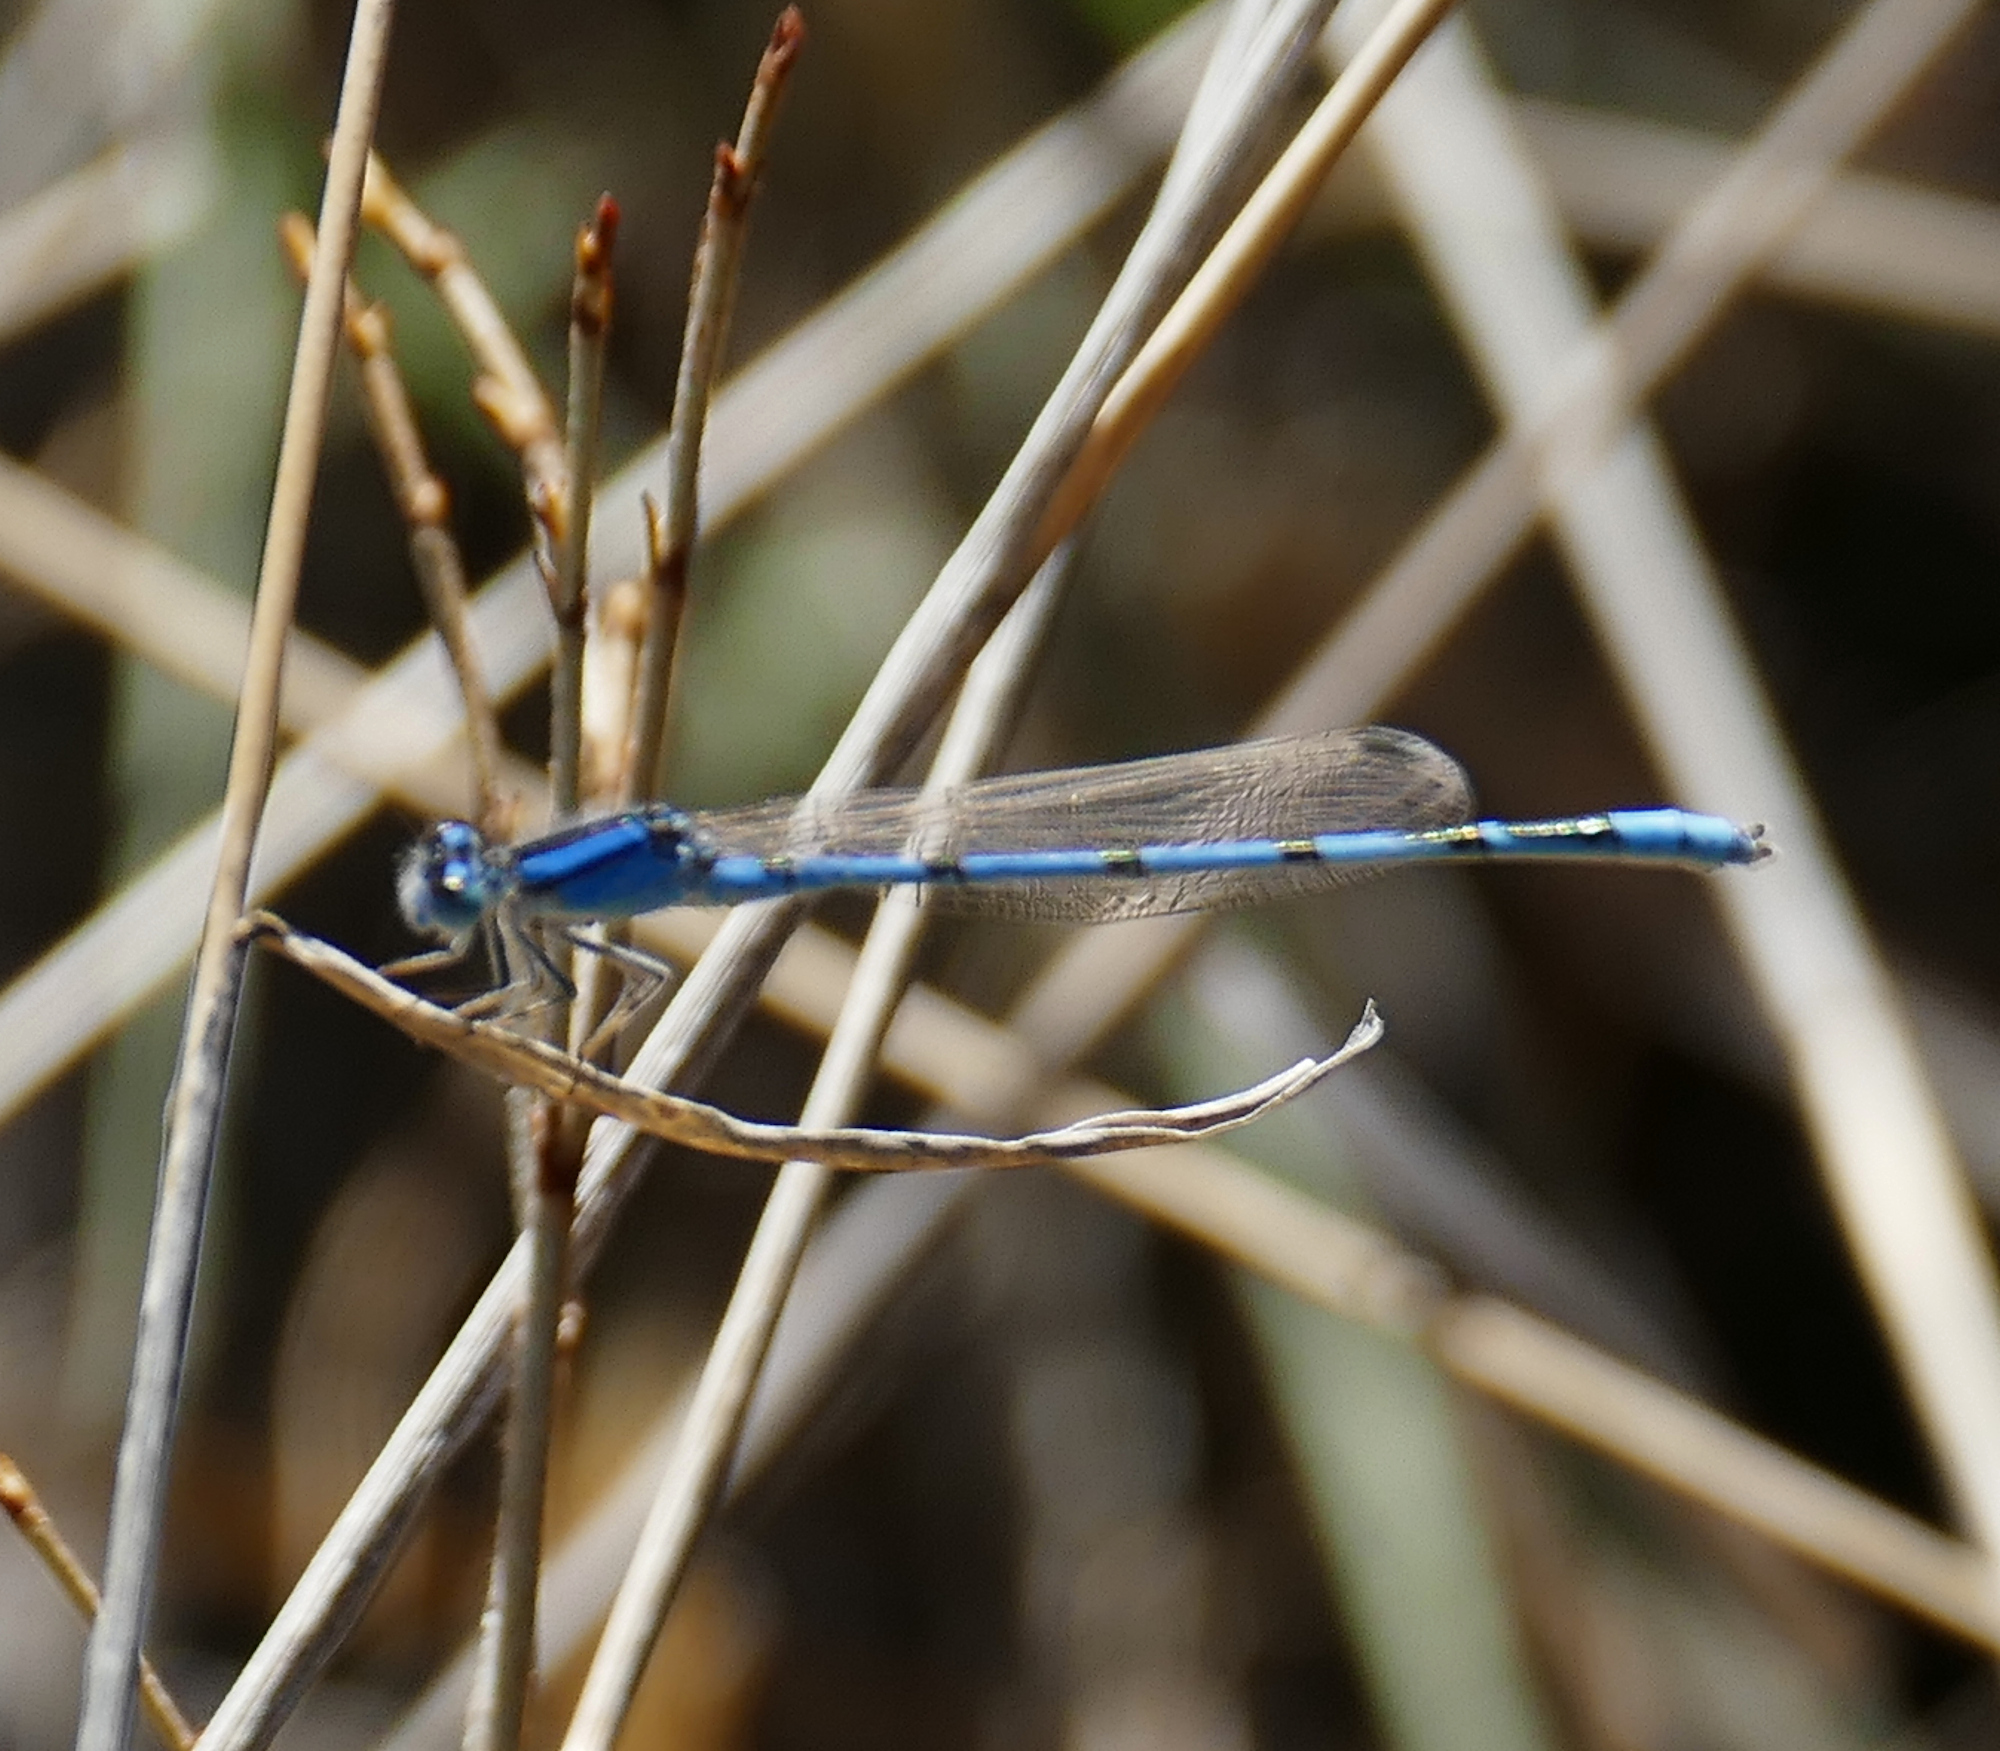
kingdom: Animalia
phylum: Arthropoda
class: Insecta
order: Odonata
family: Coenagrionidae
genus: Enallagma
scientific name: Enallagma civile
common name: Damselfly
